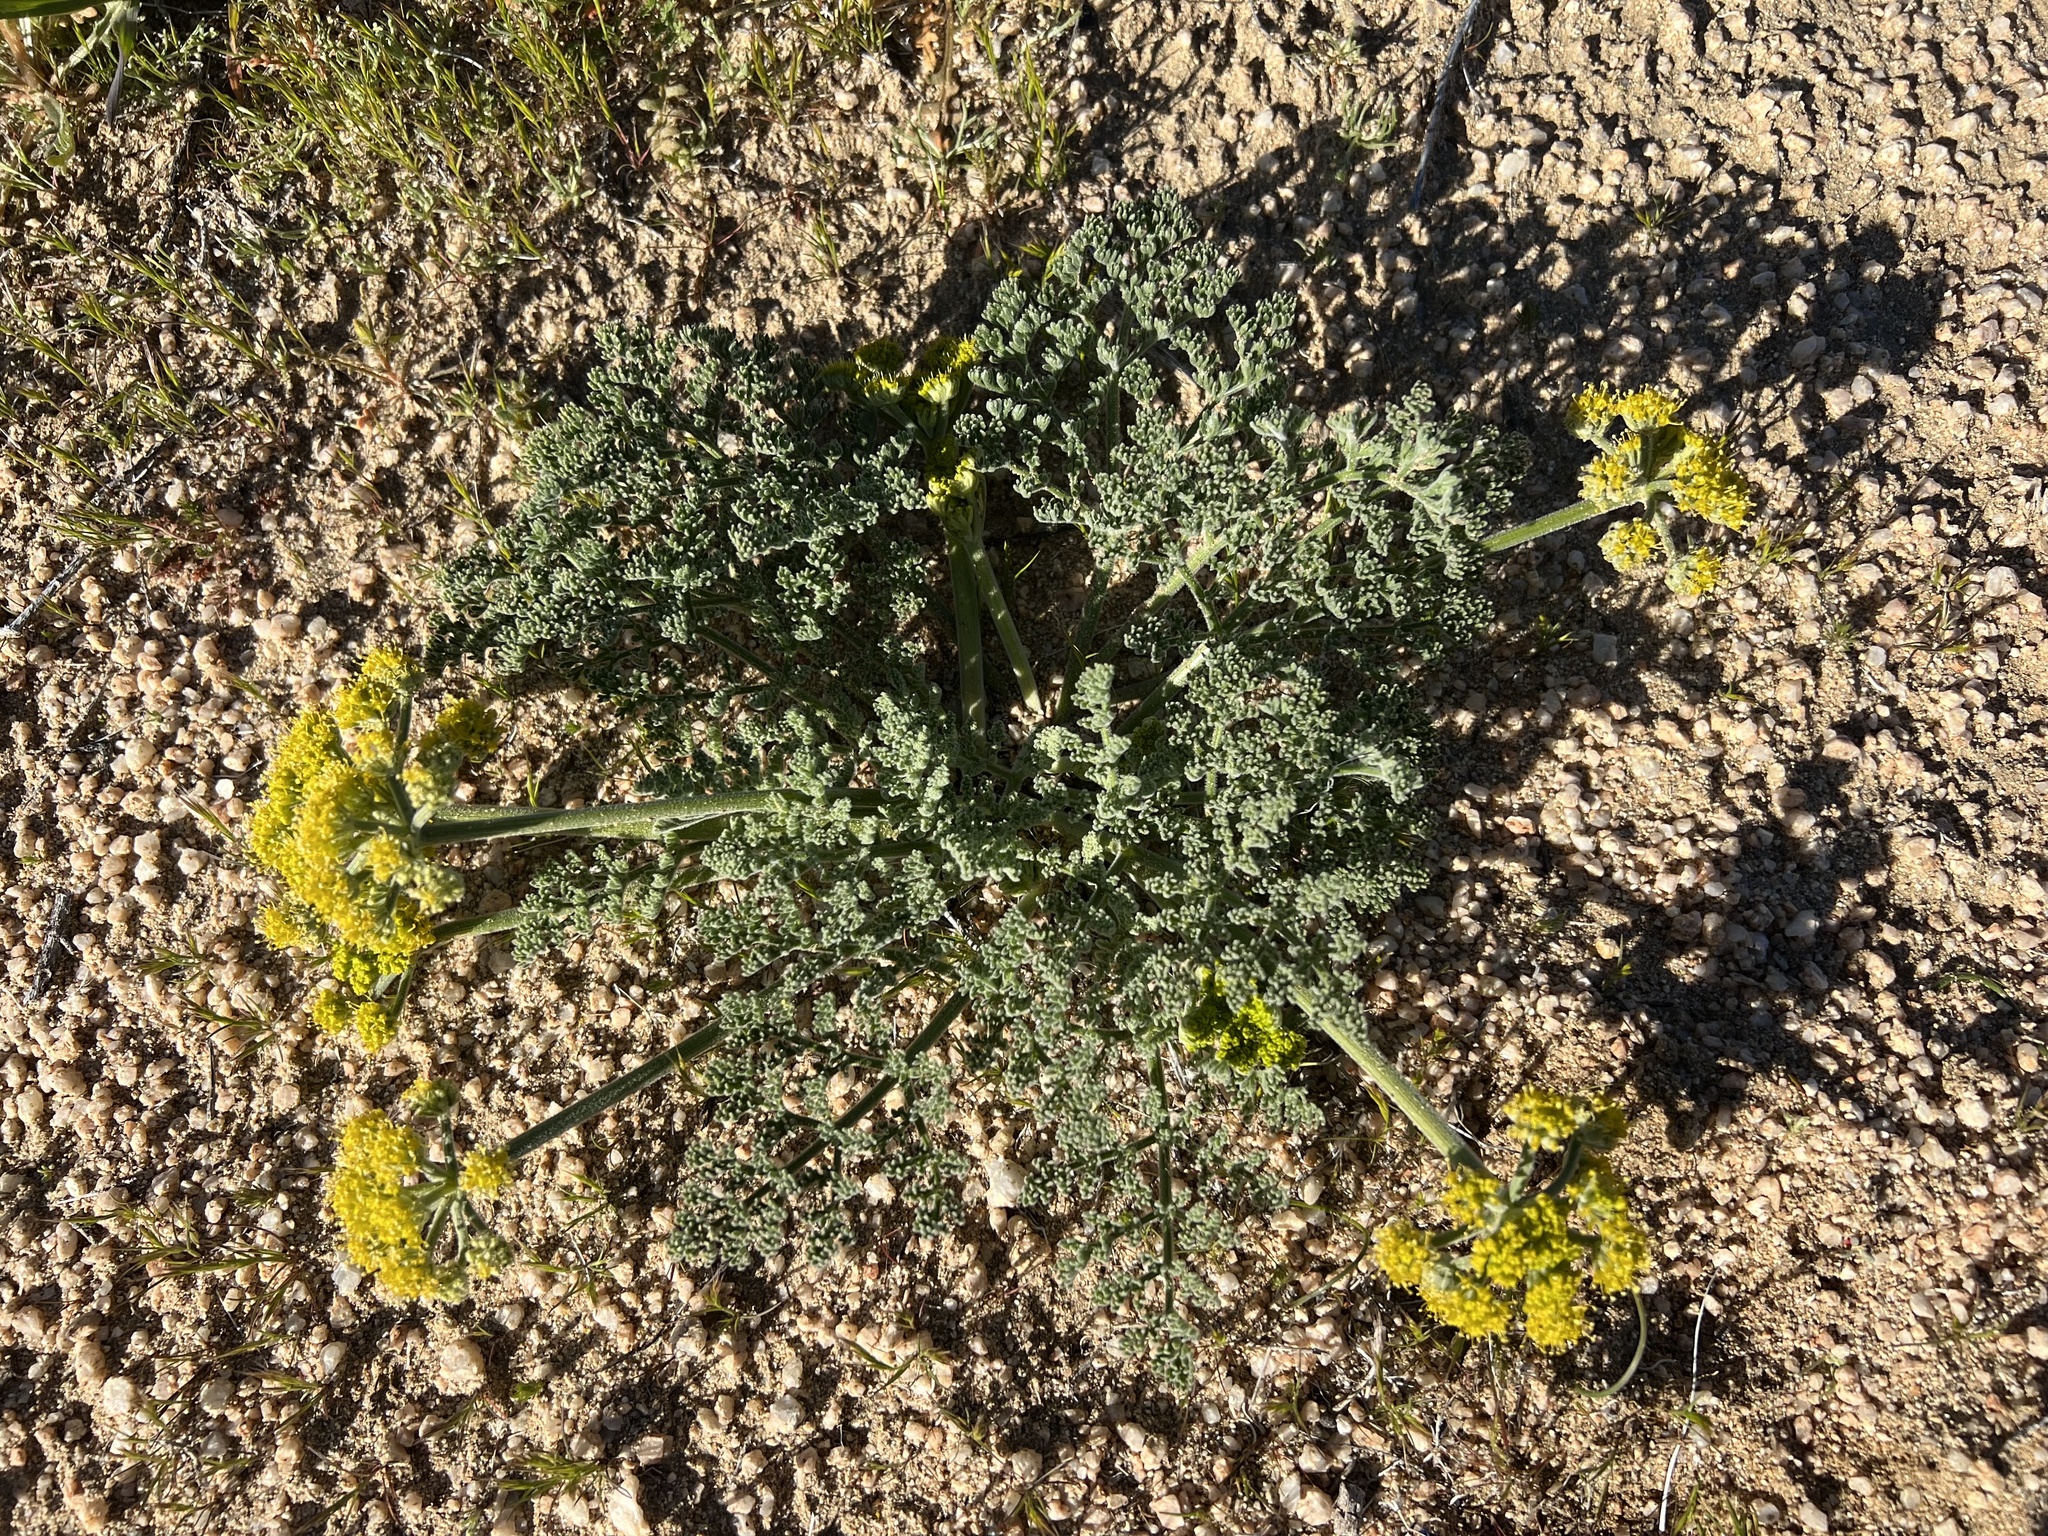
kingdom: Plantae
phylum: Tracheophyta
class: Magnoliopsida
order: Apiales
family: Apiaceae
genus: Lomatium
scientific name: Lomatium mohavense
